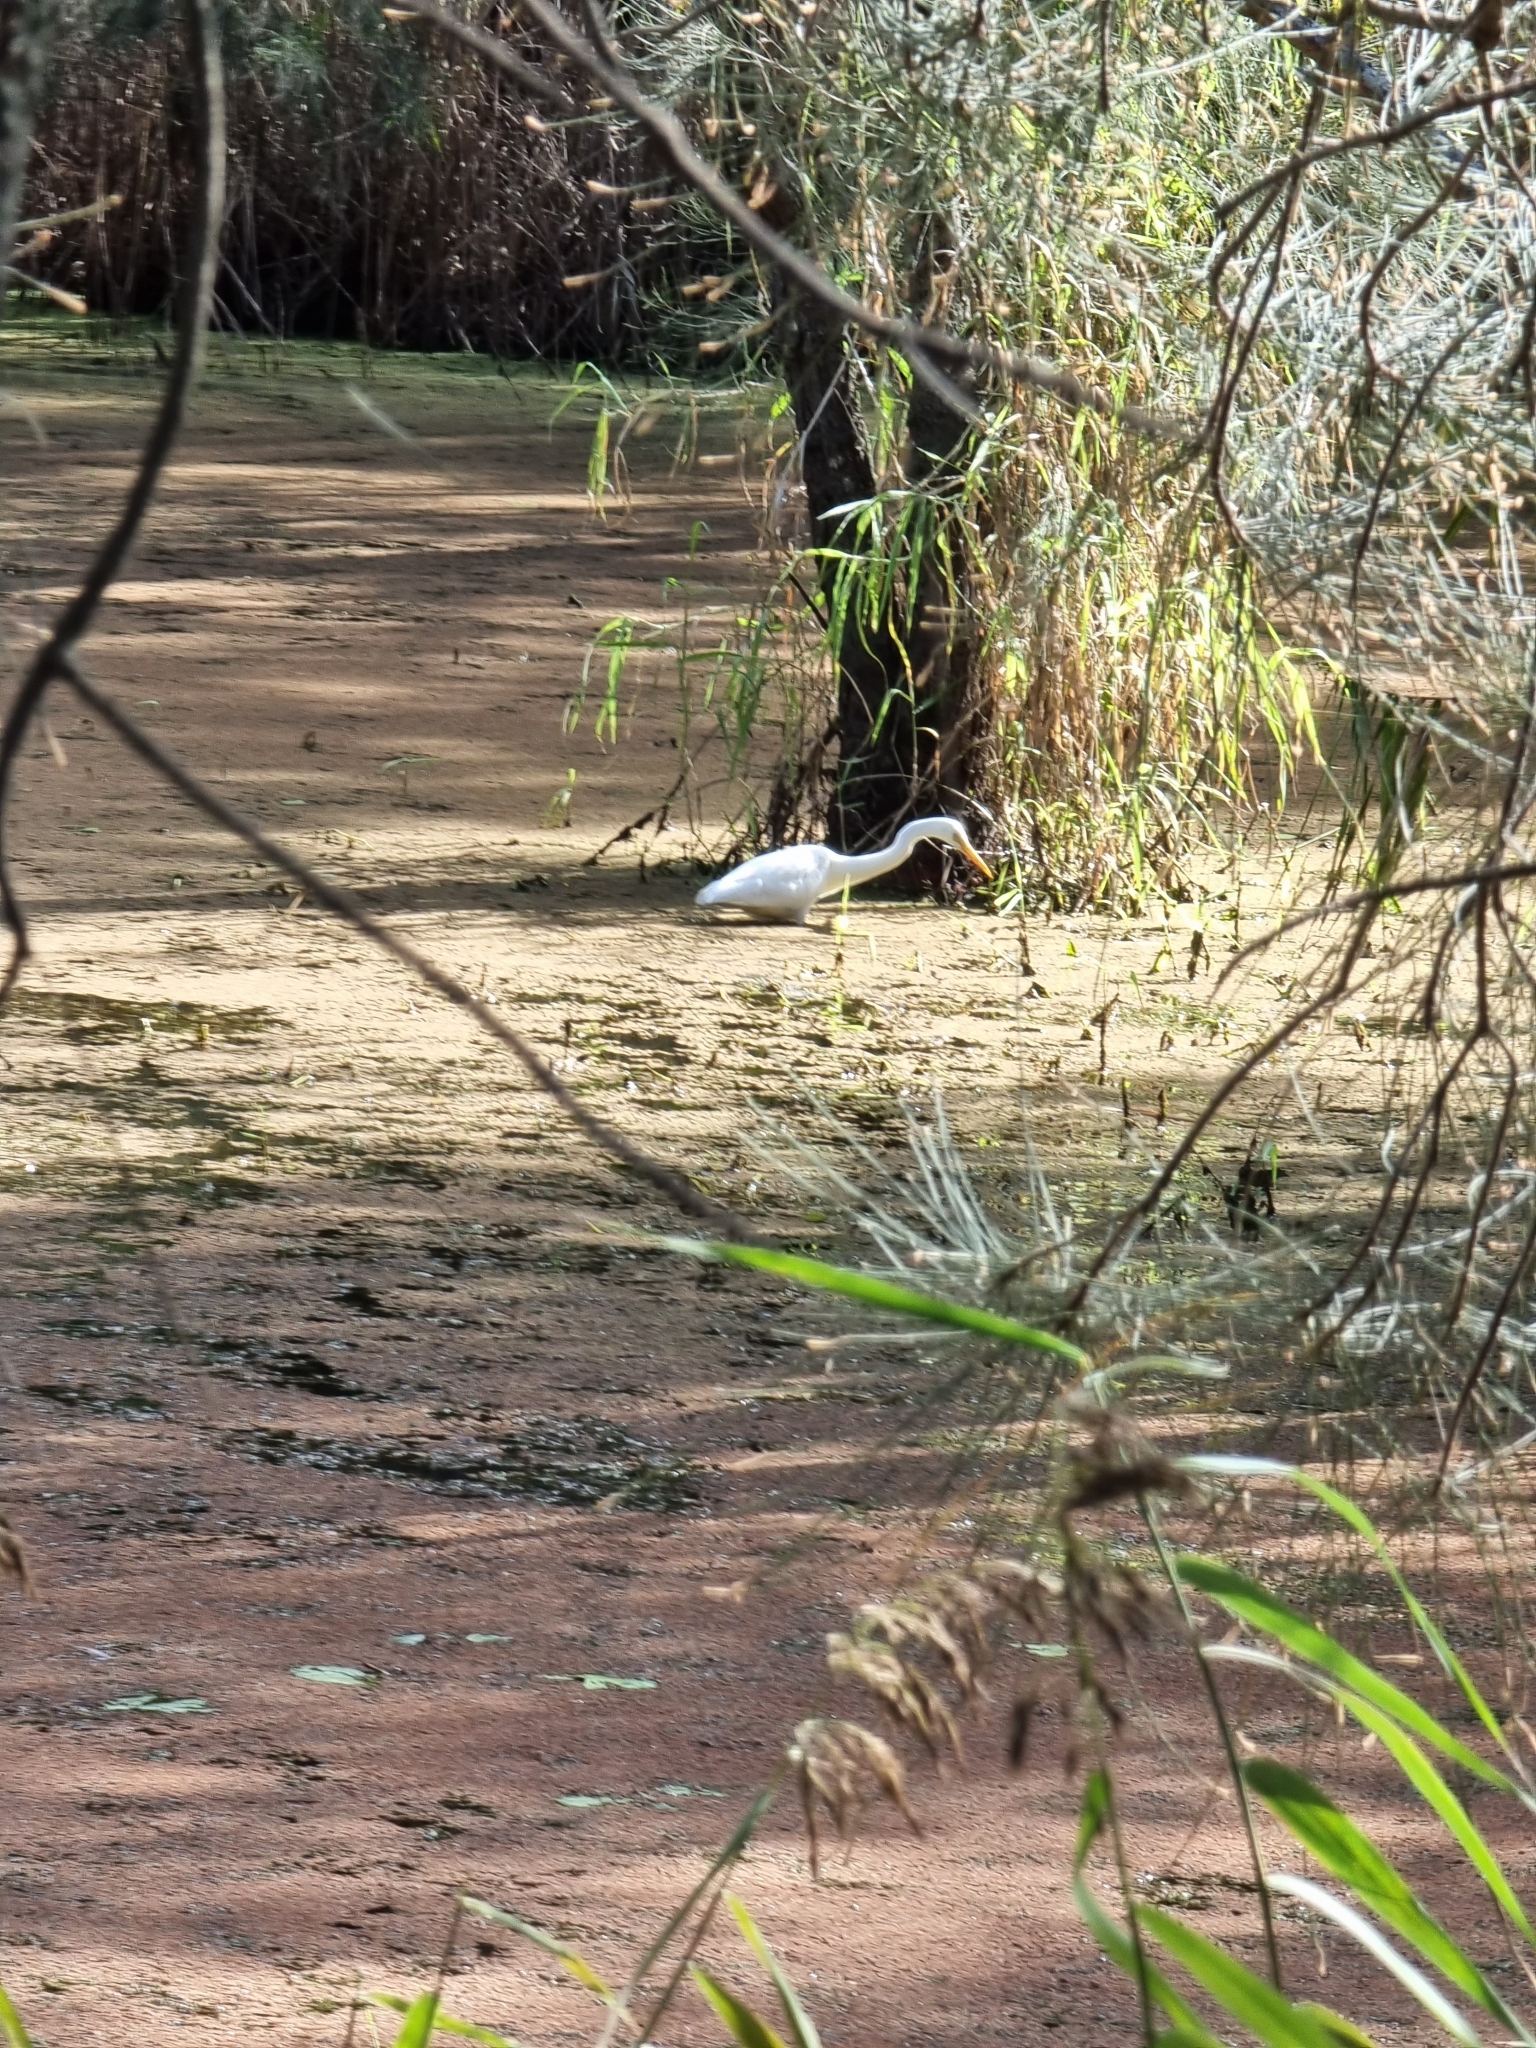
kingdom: Animalia
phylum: Chordata
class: Aves
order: Pelecaniformes
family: Ardeidae
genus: Ardea
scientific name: Ardea alba
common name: Great egret
